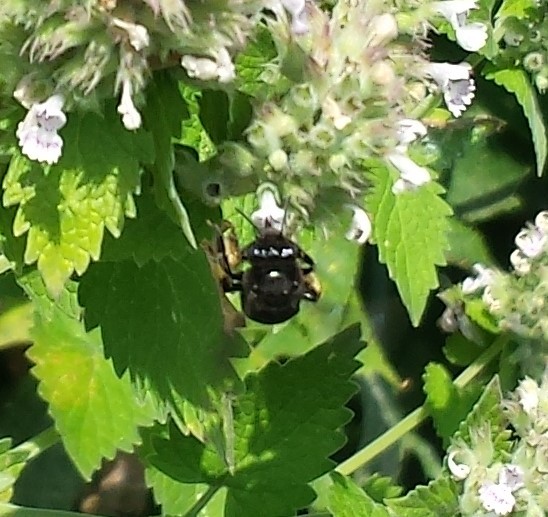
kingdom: Animalia
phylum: Arthropoda
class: Insecta
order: Hymenoptera
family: Apidae
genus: Melissodes
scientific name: Melissodes bimaculatus
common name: Two-spotted long-horned bee
